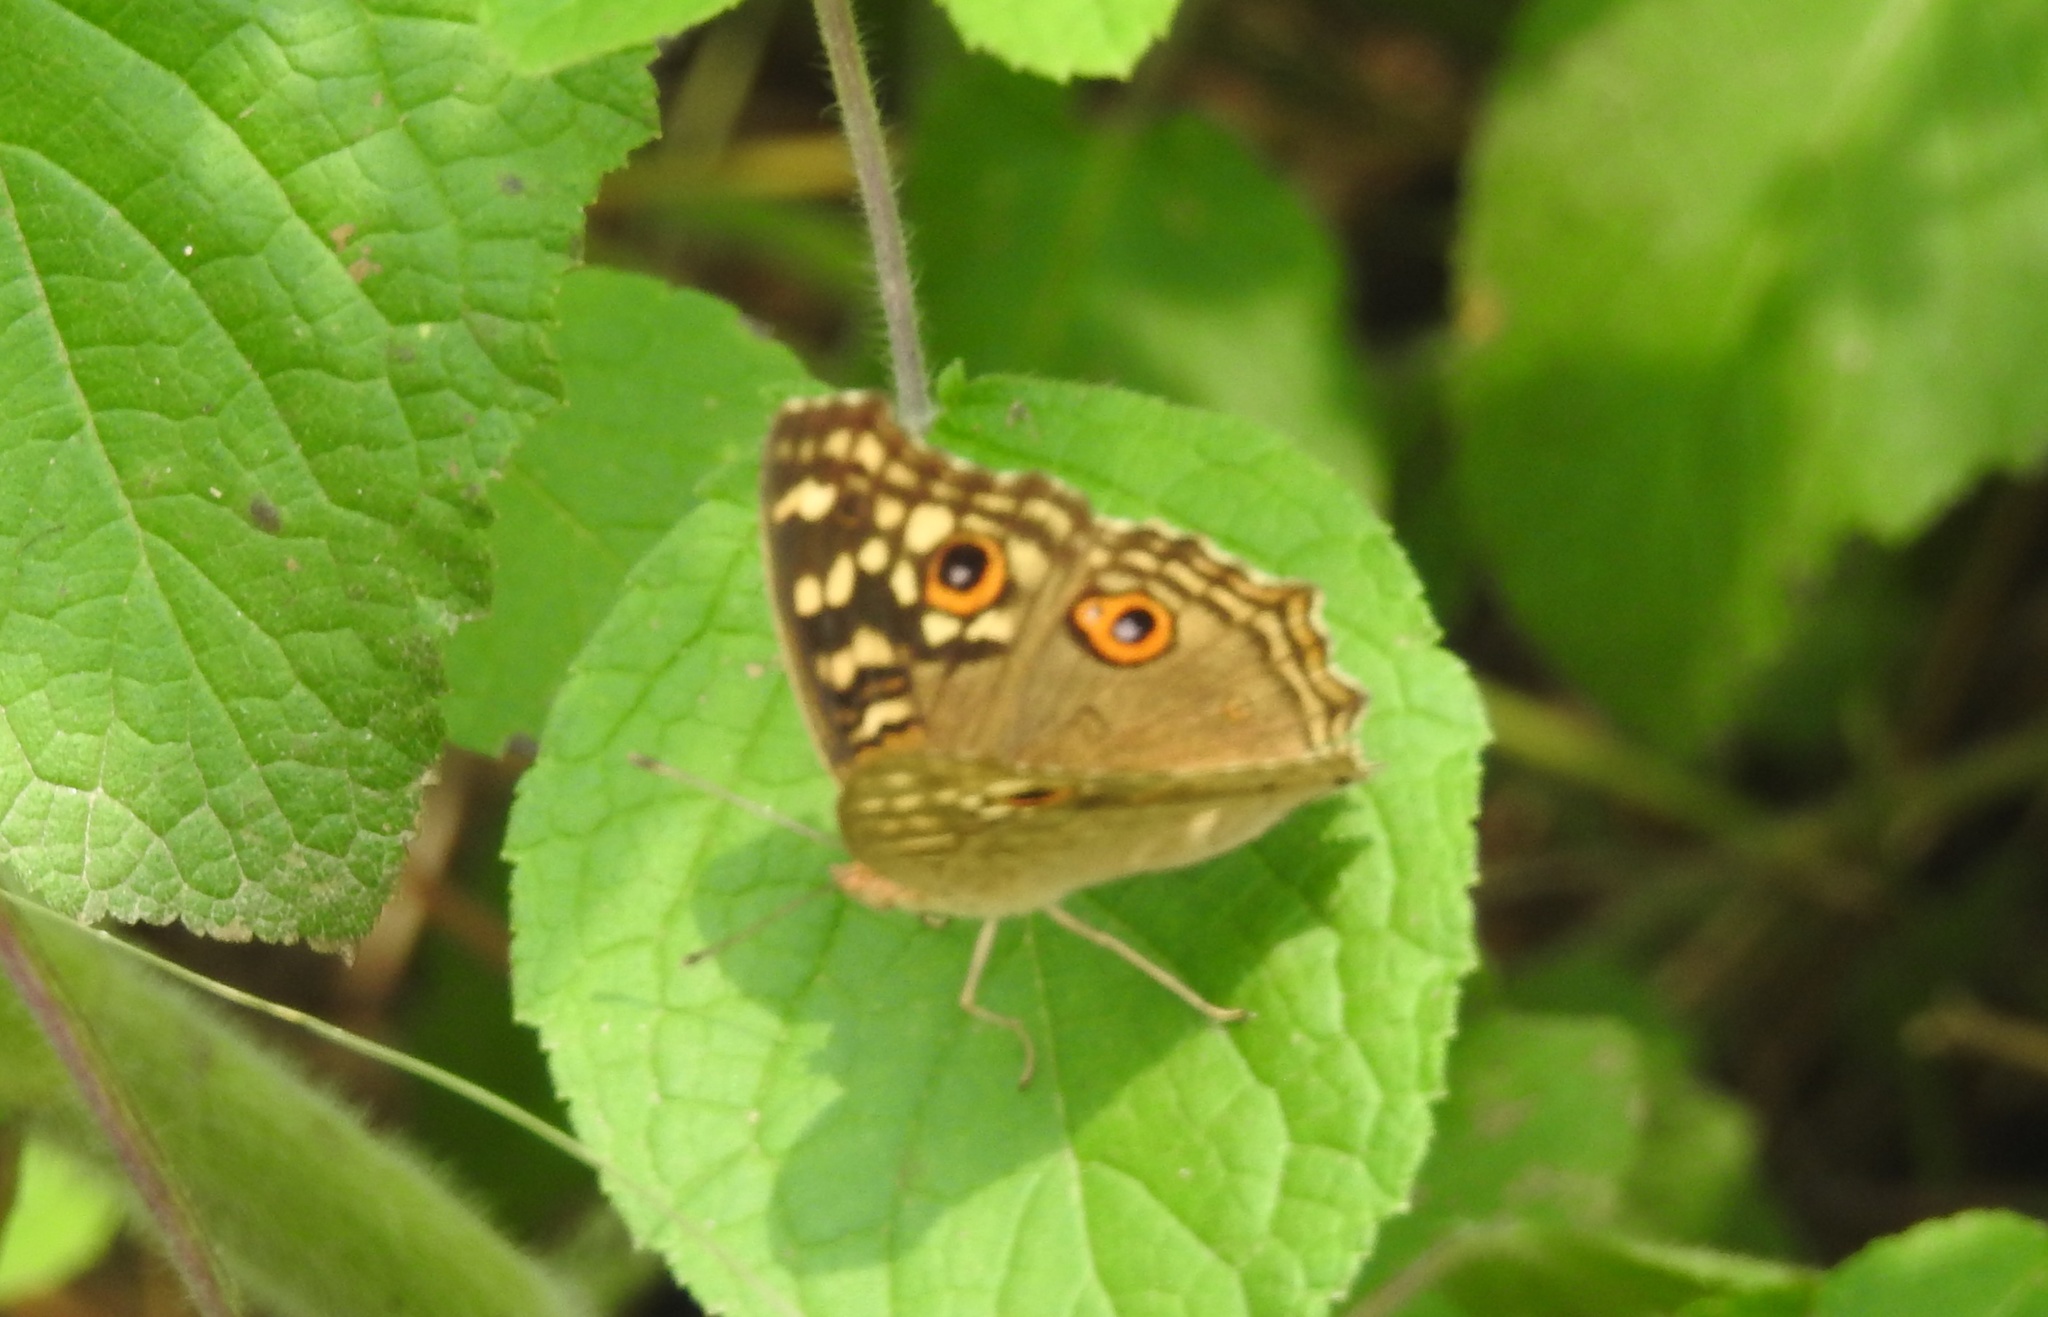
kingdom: Animalia
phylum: Arthropoda
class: Insecta
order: Lepidoptera
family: Nymphalidae
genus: Junonia
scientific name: Junonia lemonias
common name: Lemon pansy
